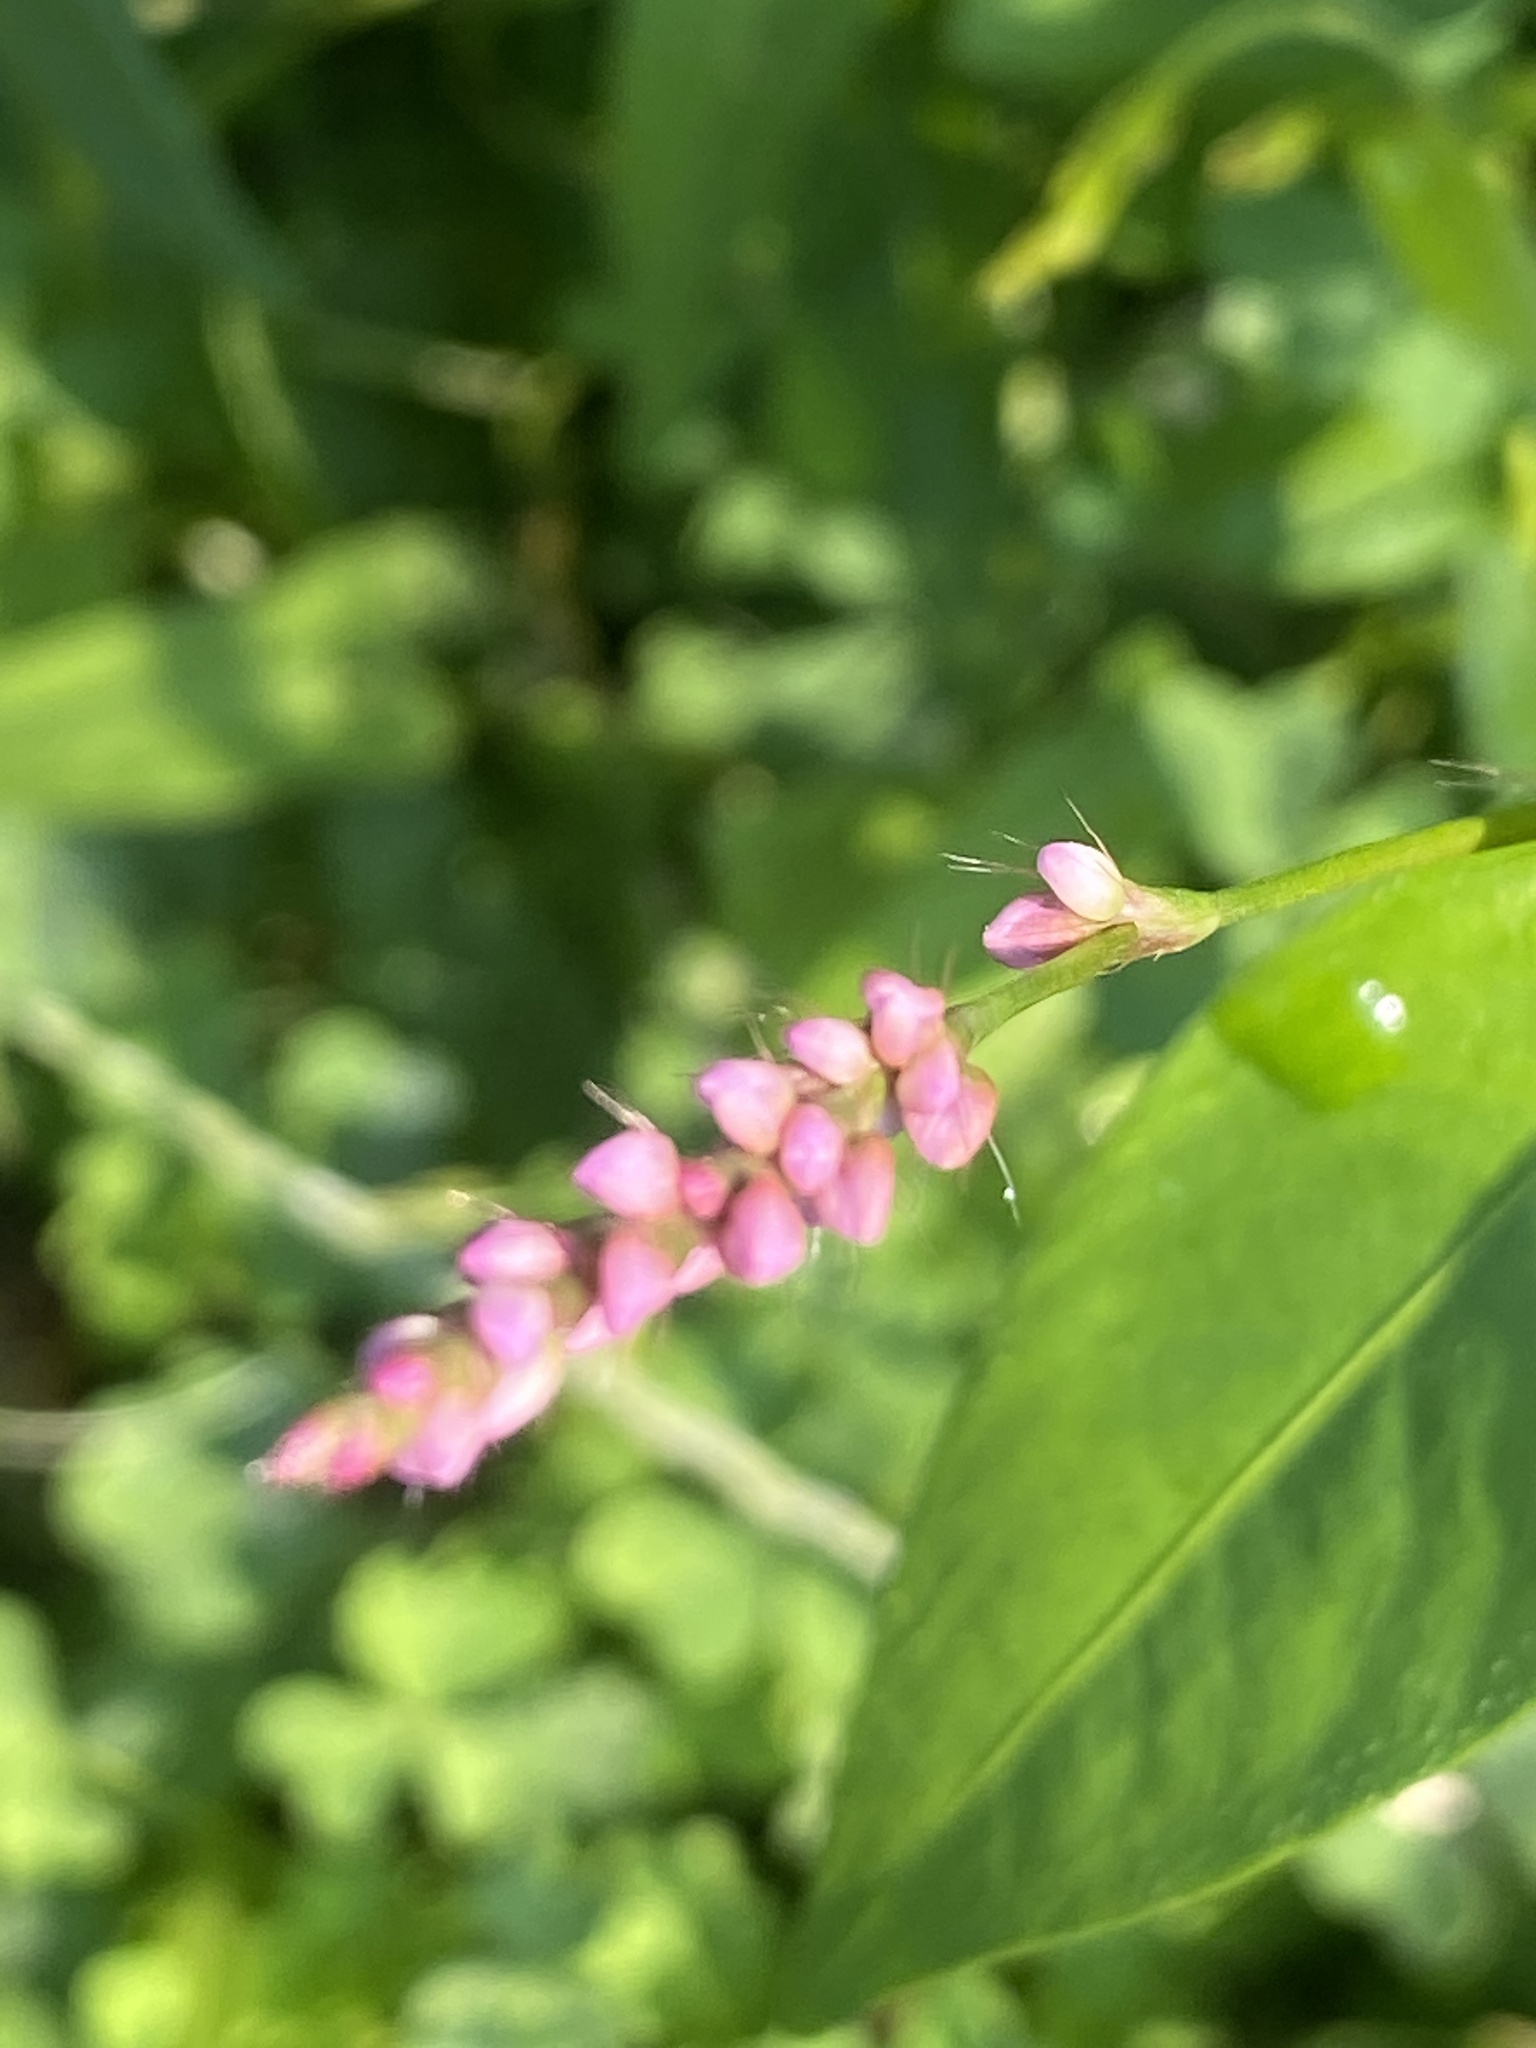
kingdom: Plantae
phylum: Tracheophyta
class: Magnoliopsida
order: Caryophyllales
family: Polygonaceae
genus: Persicaria
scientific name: Persicaria longiseta
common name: Bristly lady's-thumb
